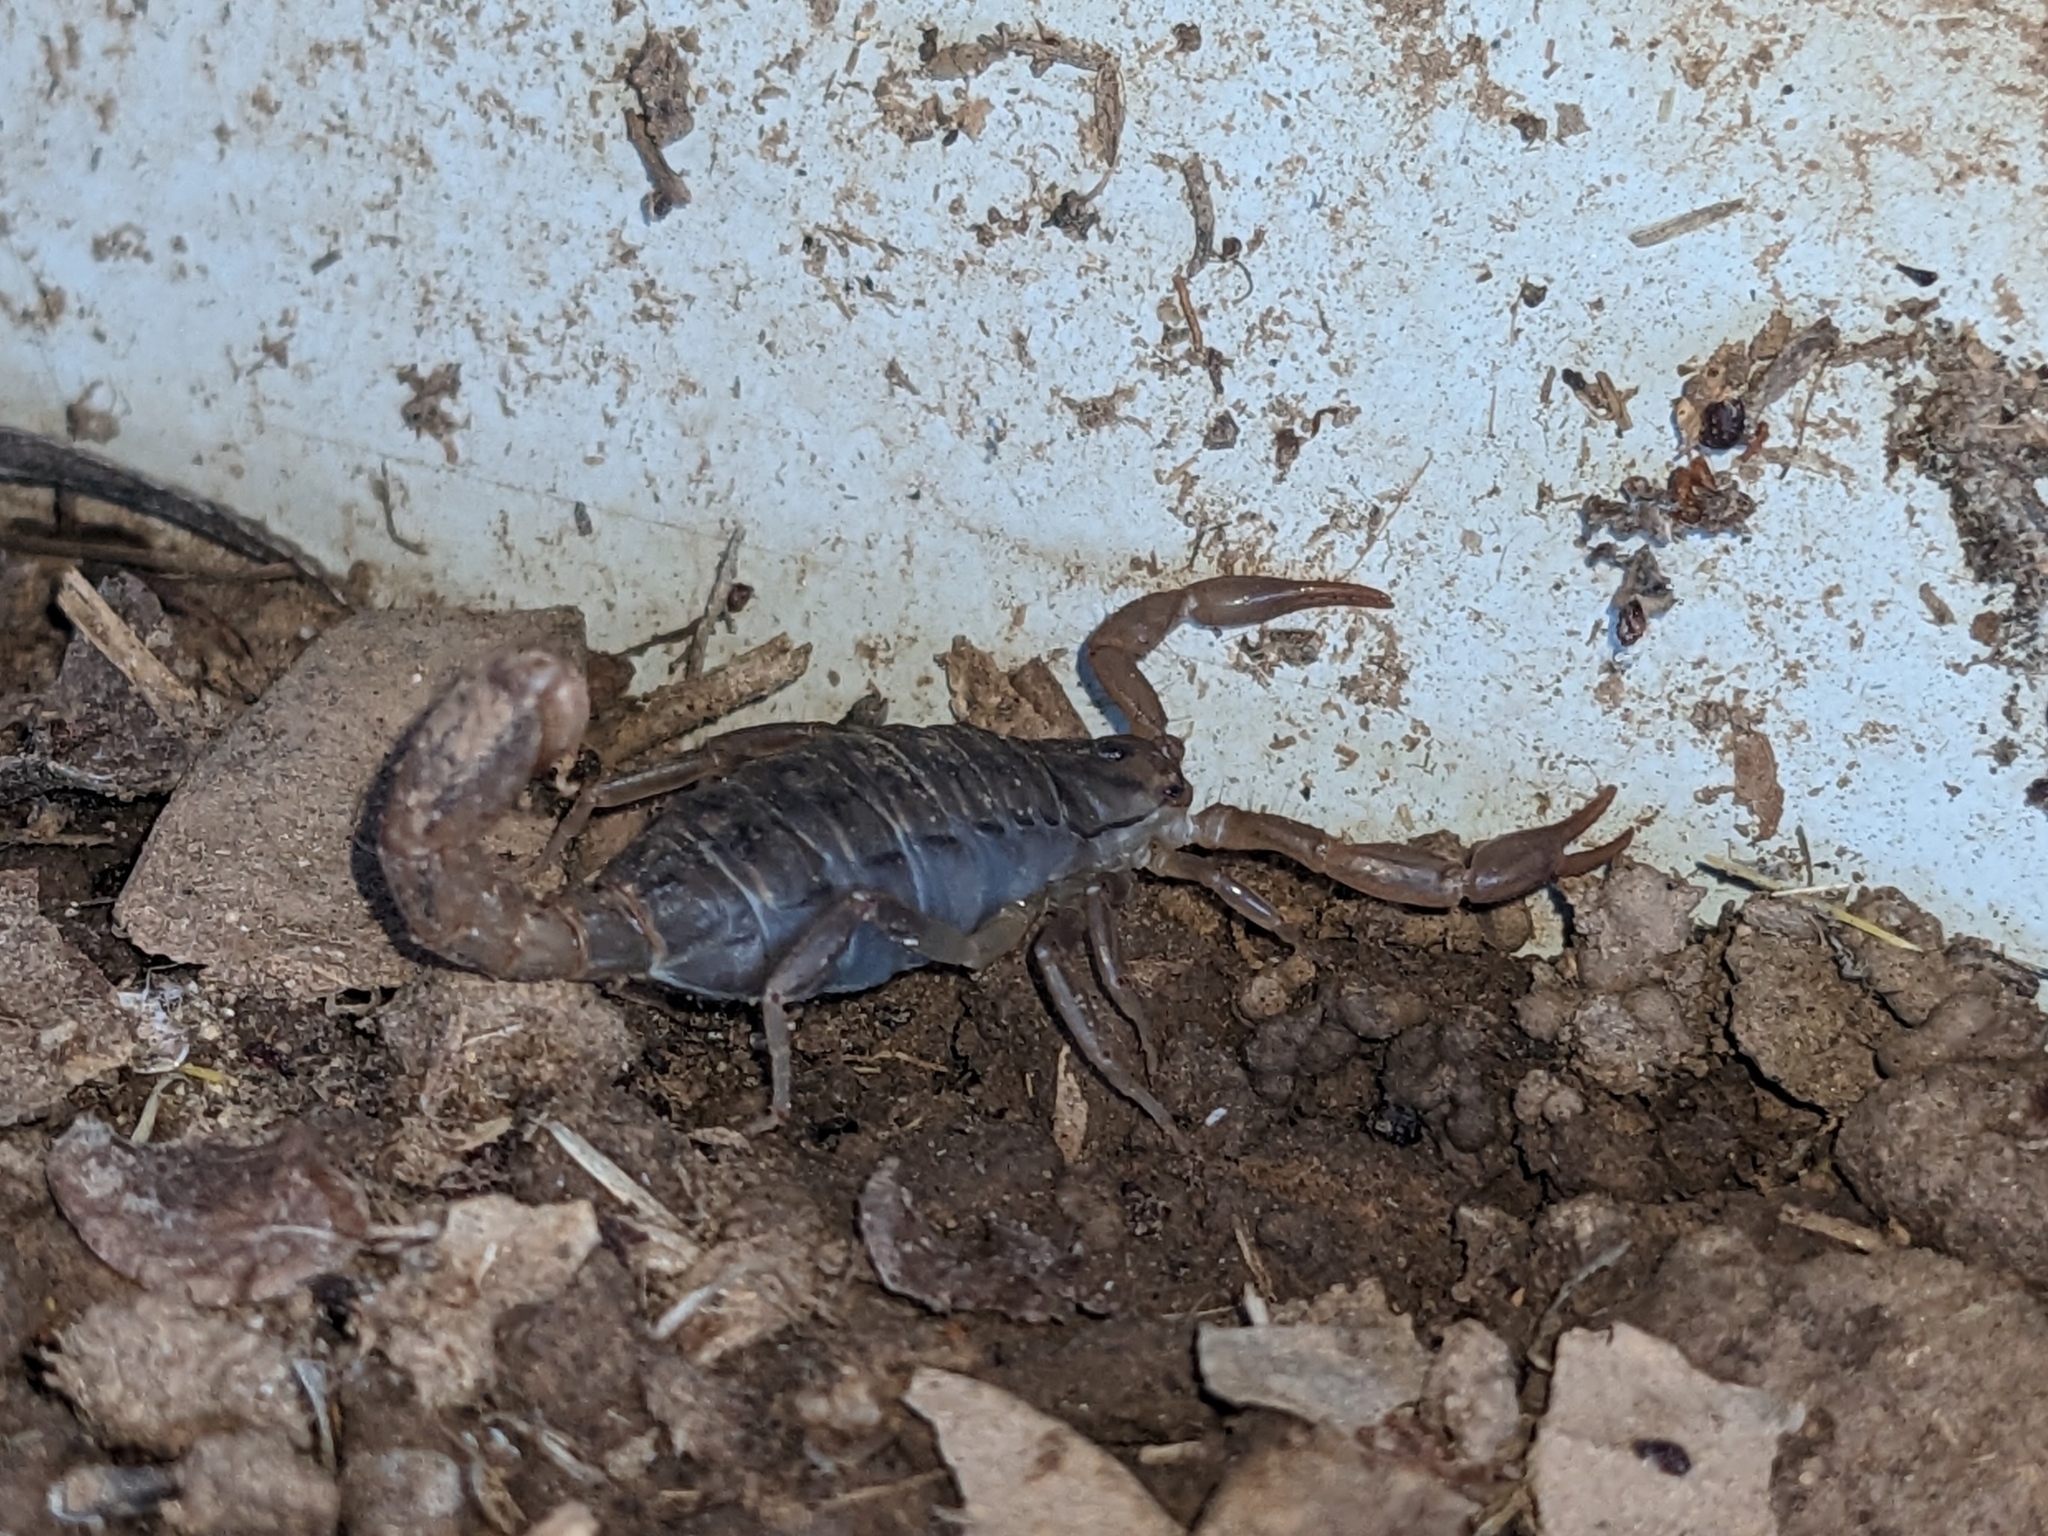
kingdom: Animalia
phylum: Arthropoda
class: Arachnida
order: Scorpiones
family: Vaejovidae
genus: Paravaejovis
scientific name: Paravaejovis spinigerus
